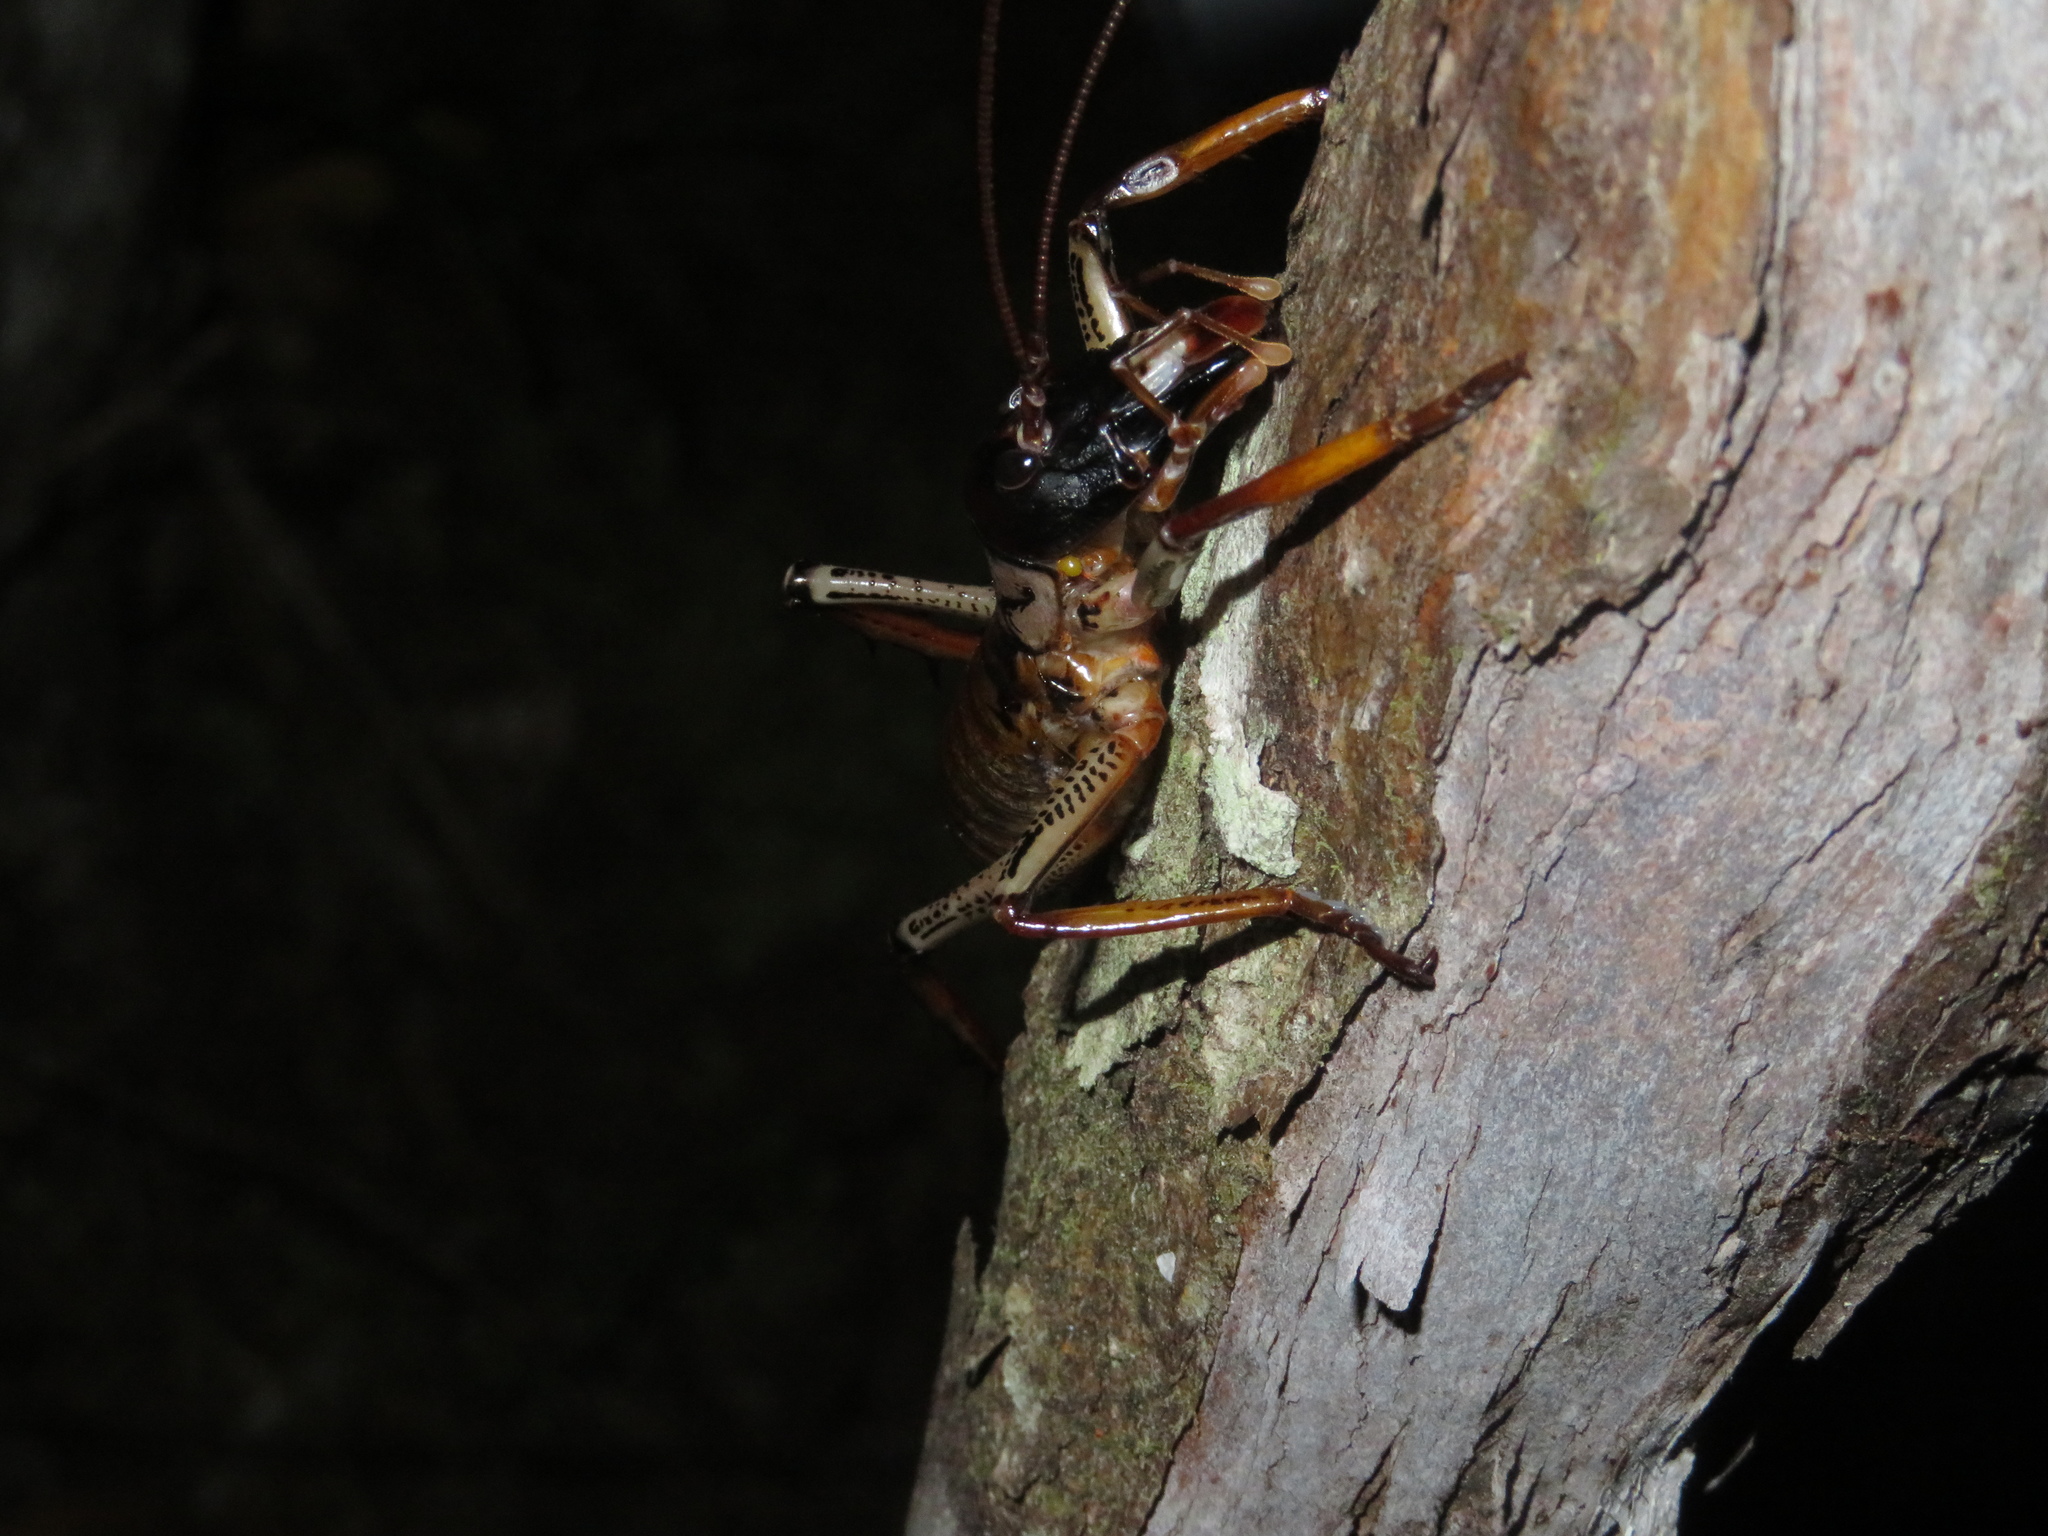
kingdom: Animalia
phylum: Arthropoda
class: Insecta
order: Orthoptera
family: Anostostomatidae
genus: Hemideina
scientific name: Hemideina thoracica
